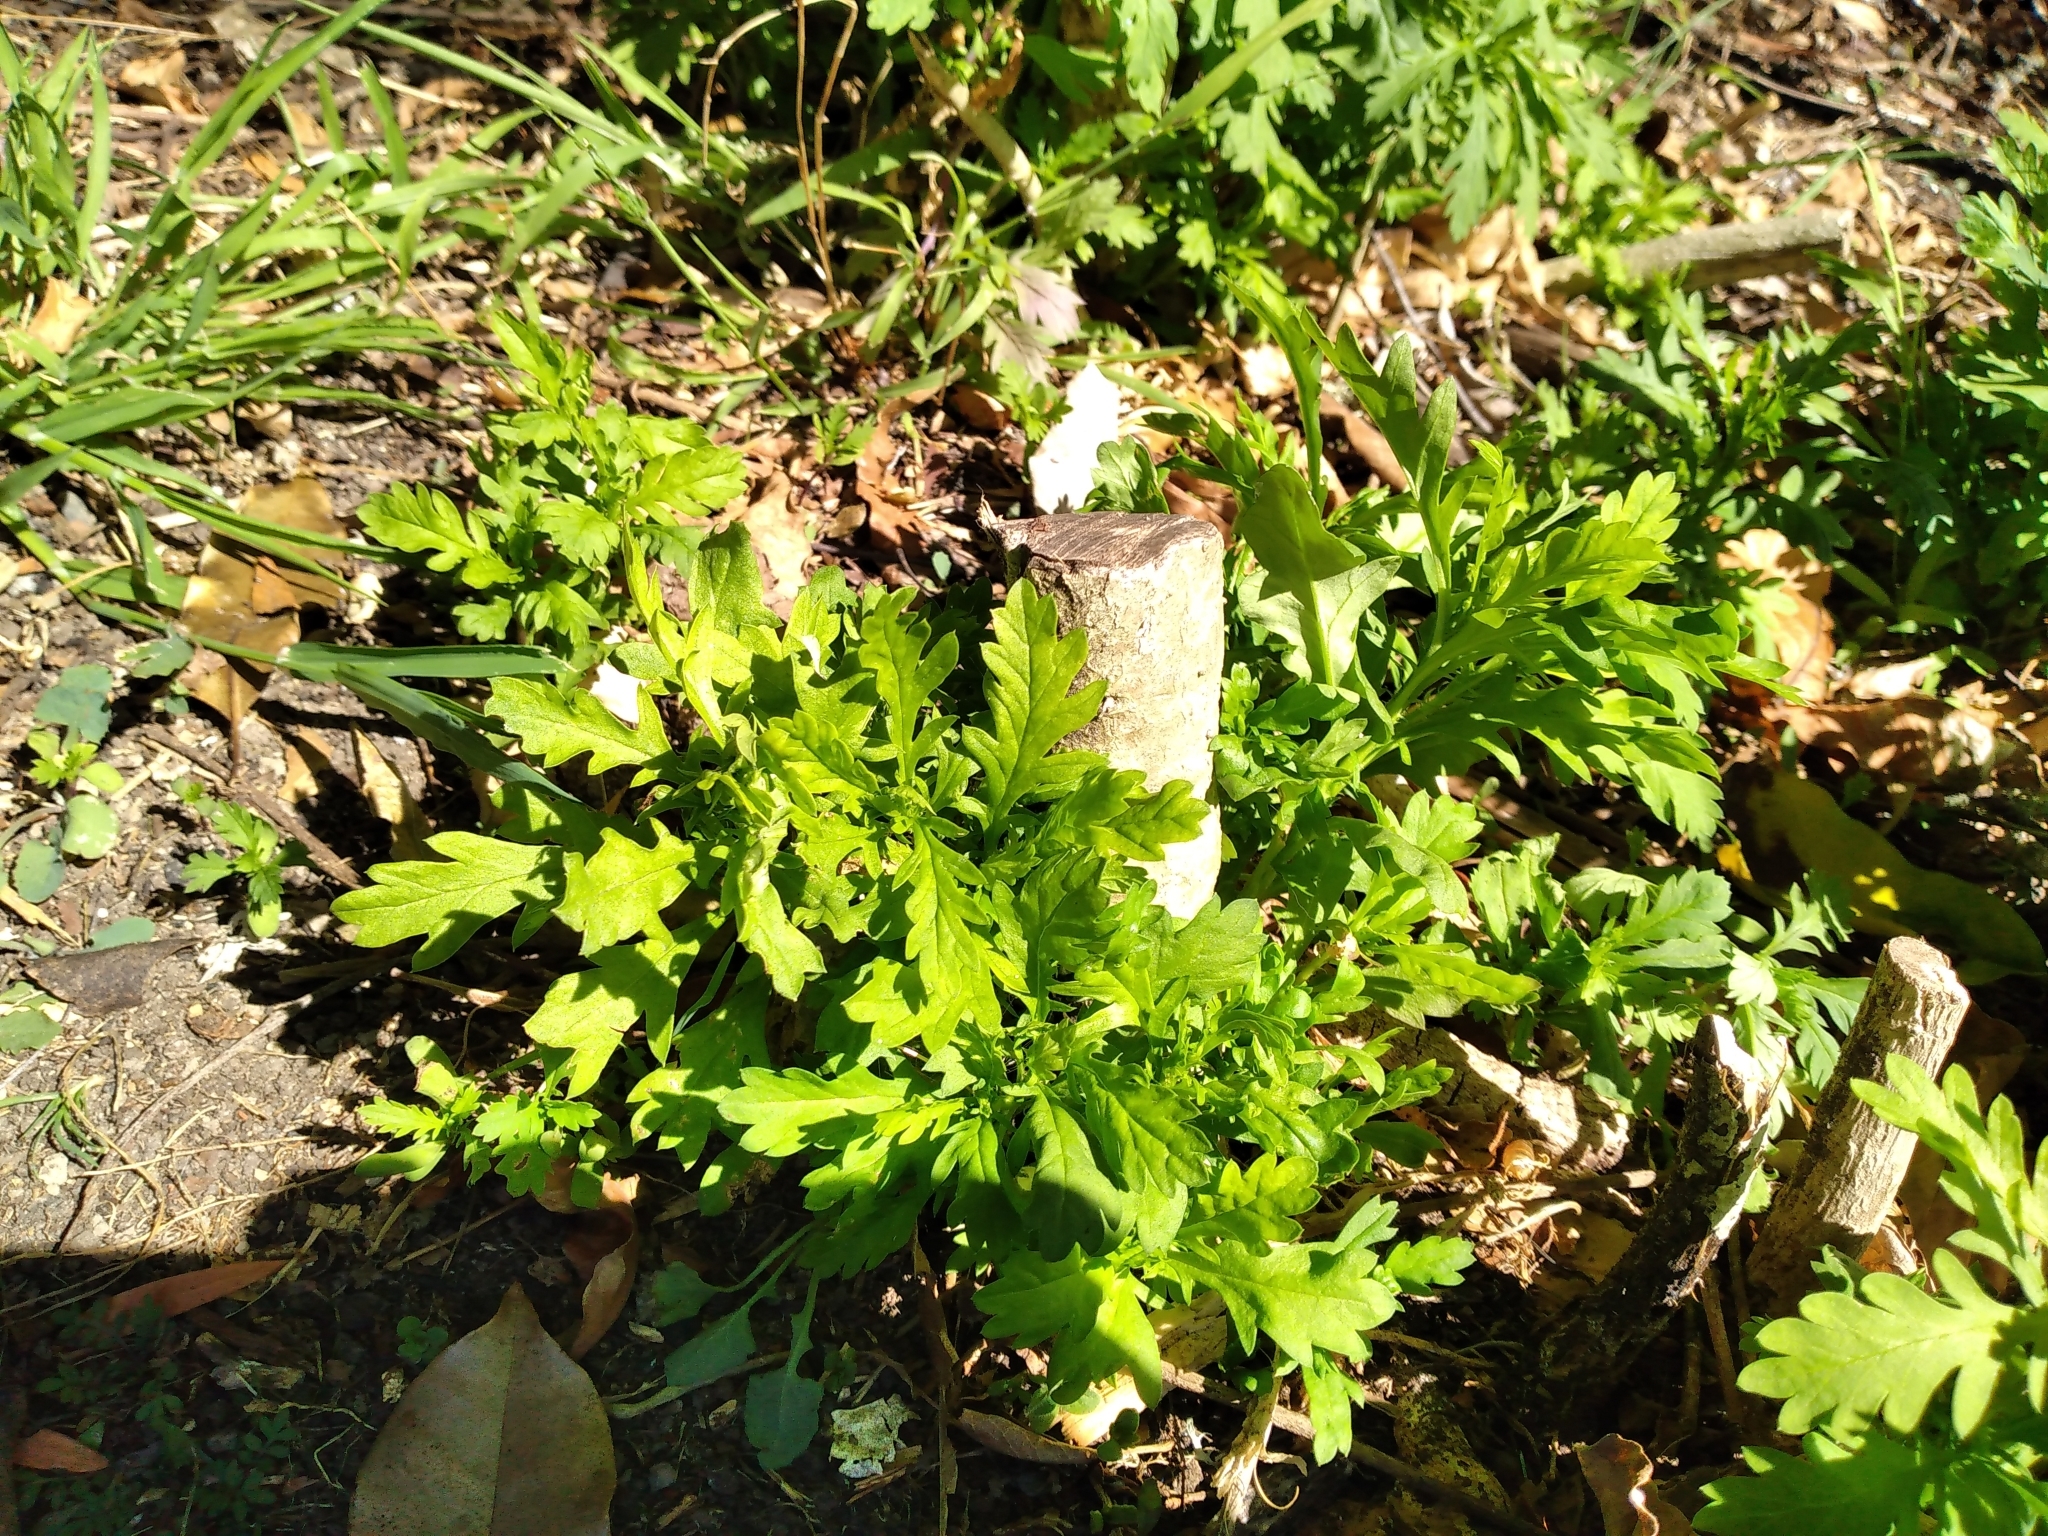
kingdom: Plantae
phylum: Tracheophyta
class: Magnoliopsida
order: Asterales
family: Asteraceae
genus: Euryops
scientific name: Euryops chrysanthemoides
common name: Bull's eye
